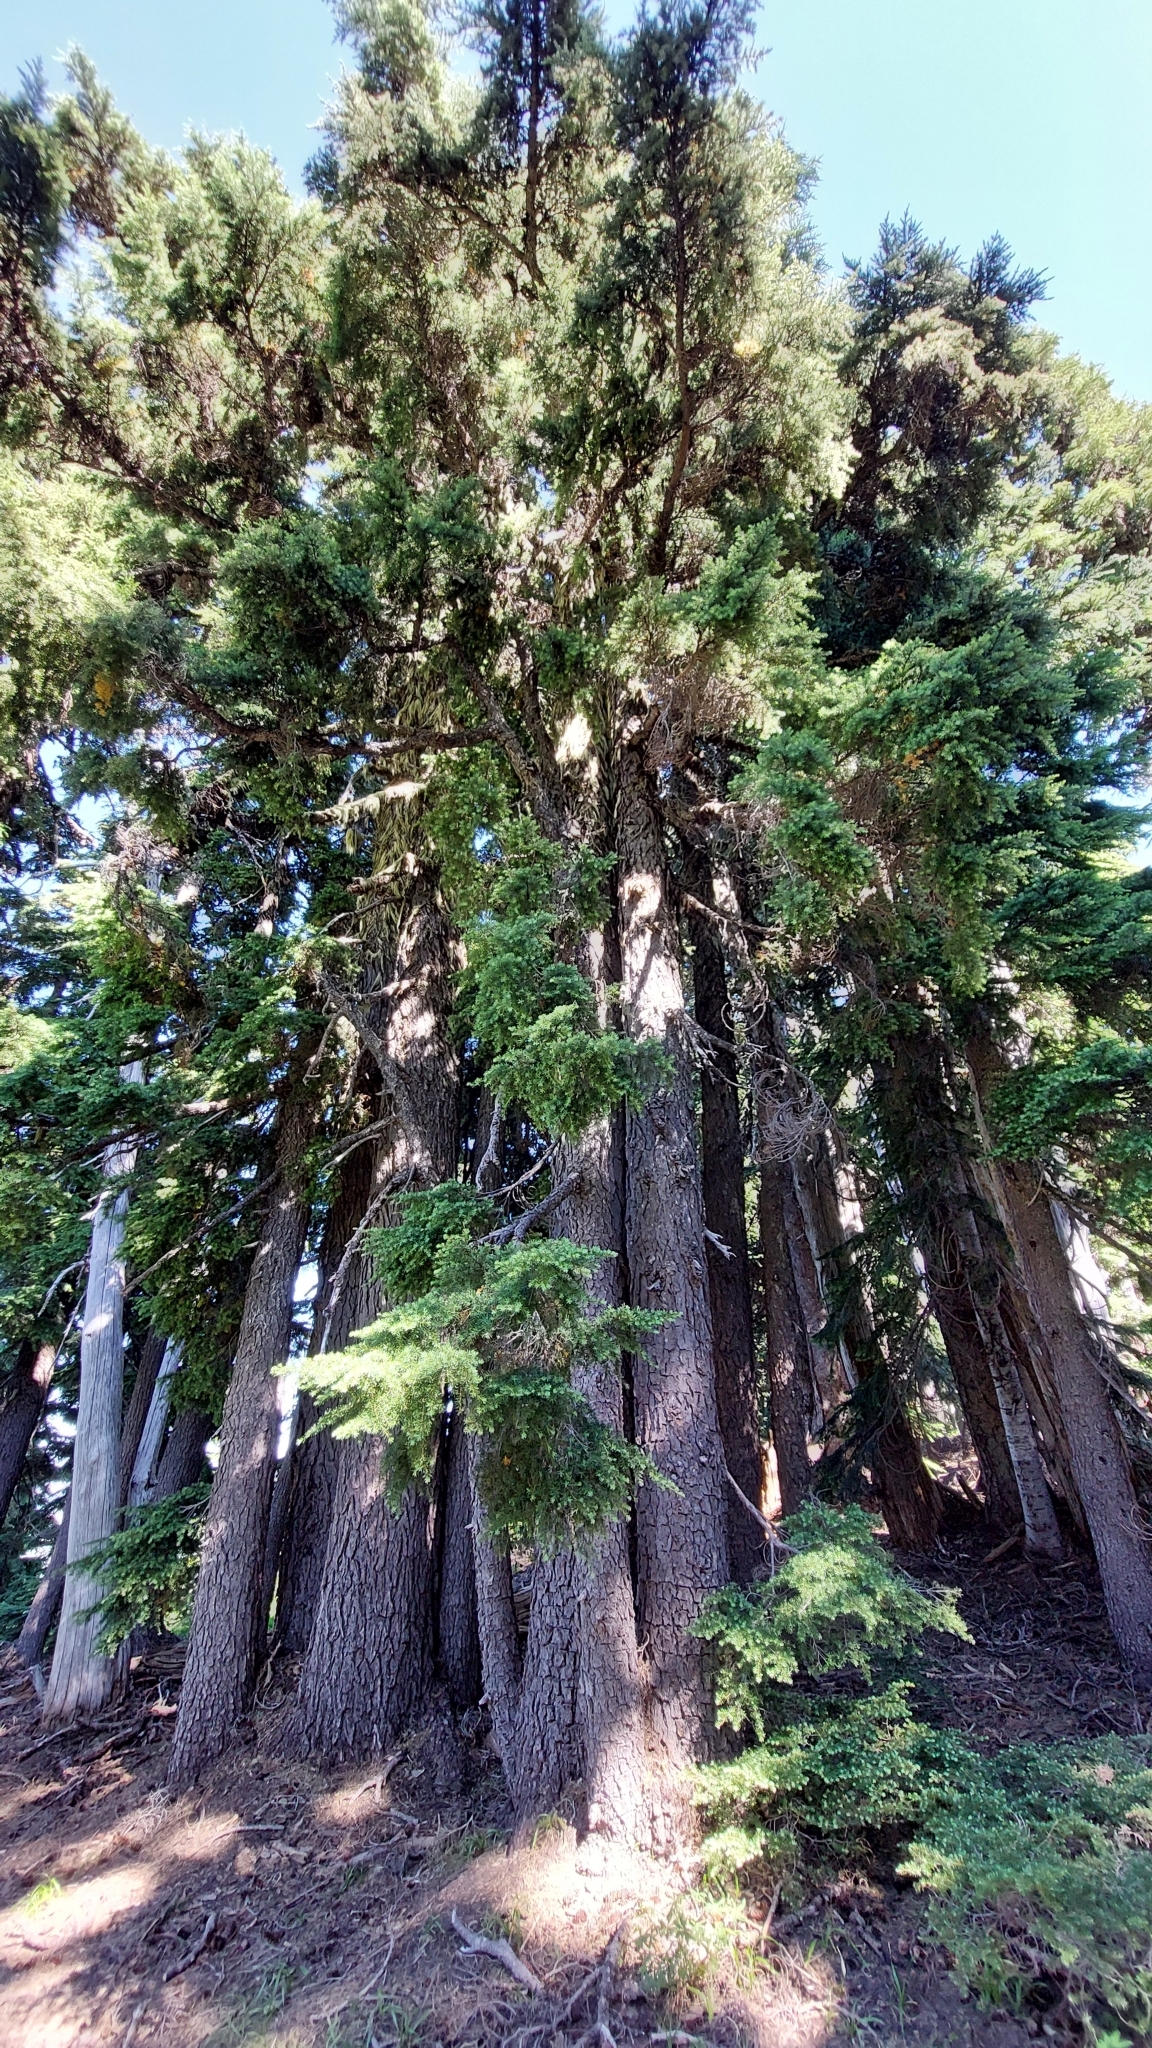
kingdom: Plantae
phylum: Tracheophyta
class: Pinopsida
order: Pinales
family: Pinaceae
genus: Tsuga
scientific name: Tsuga mertensiana
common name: Mountain hemlock
